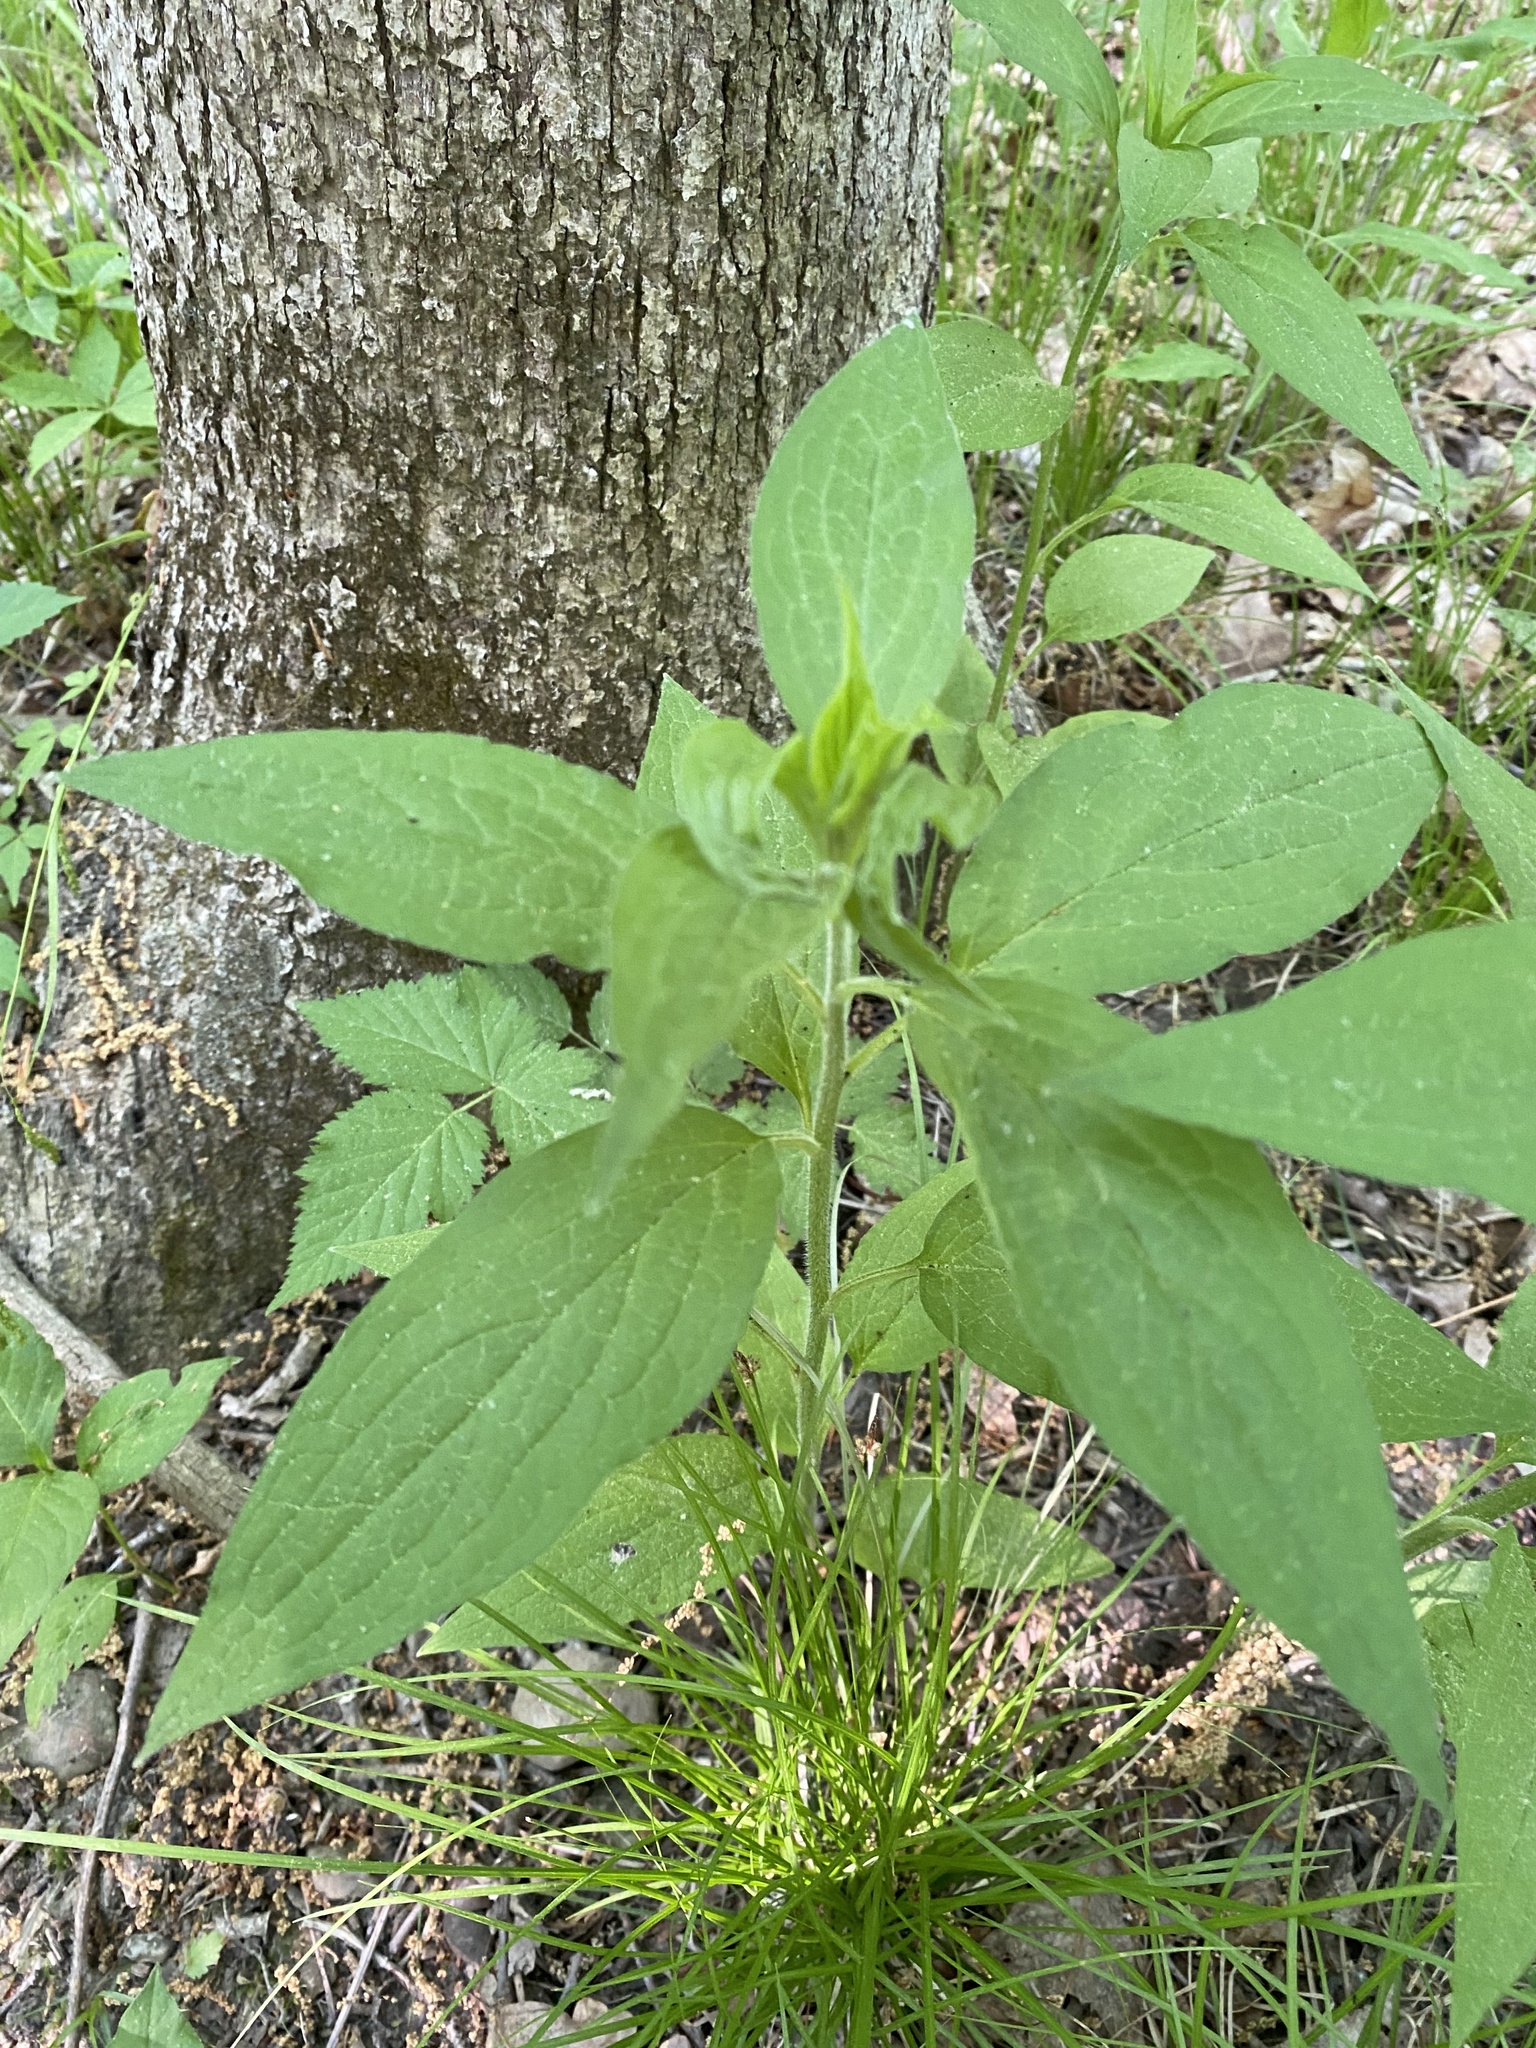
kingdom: Plantae
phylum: Tracheophyta
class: Magnoliopsida
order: Boraginales
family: Boraginaceae
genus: Hackelia
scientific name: Hackelia virginiana
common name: Beggar's-lice
